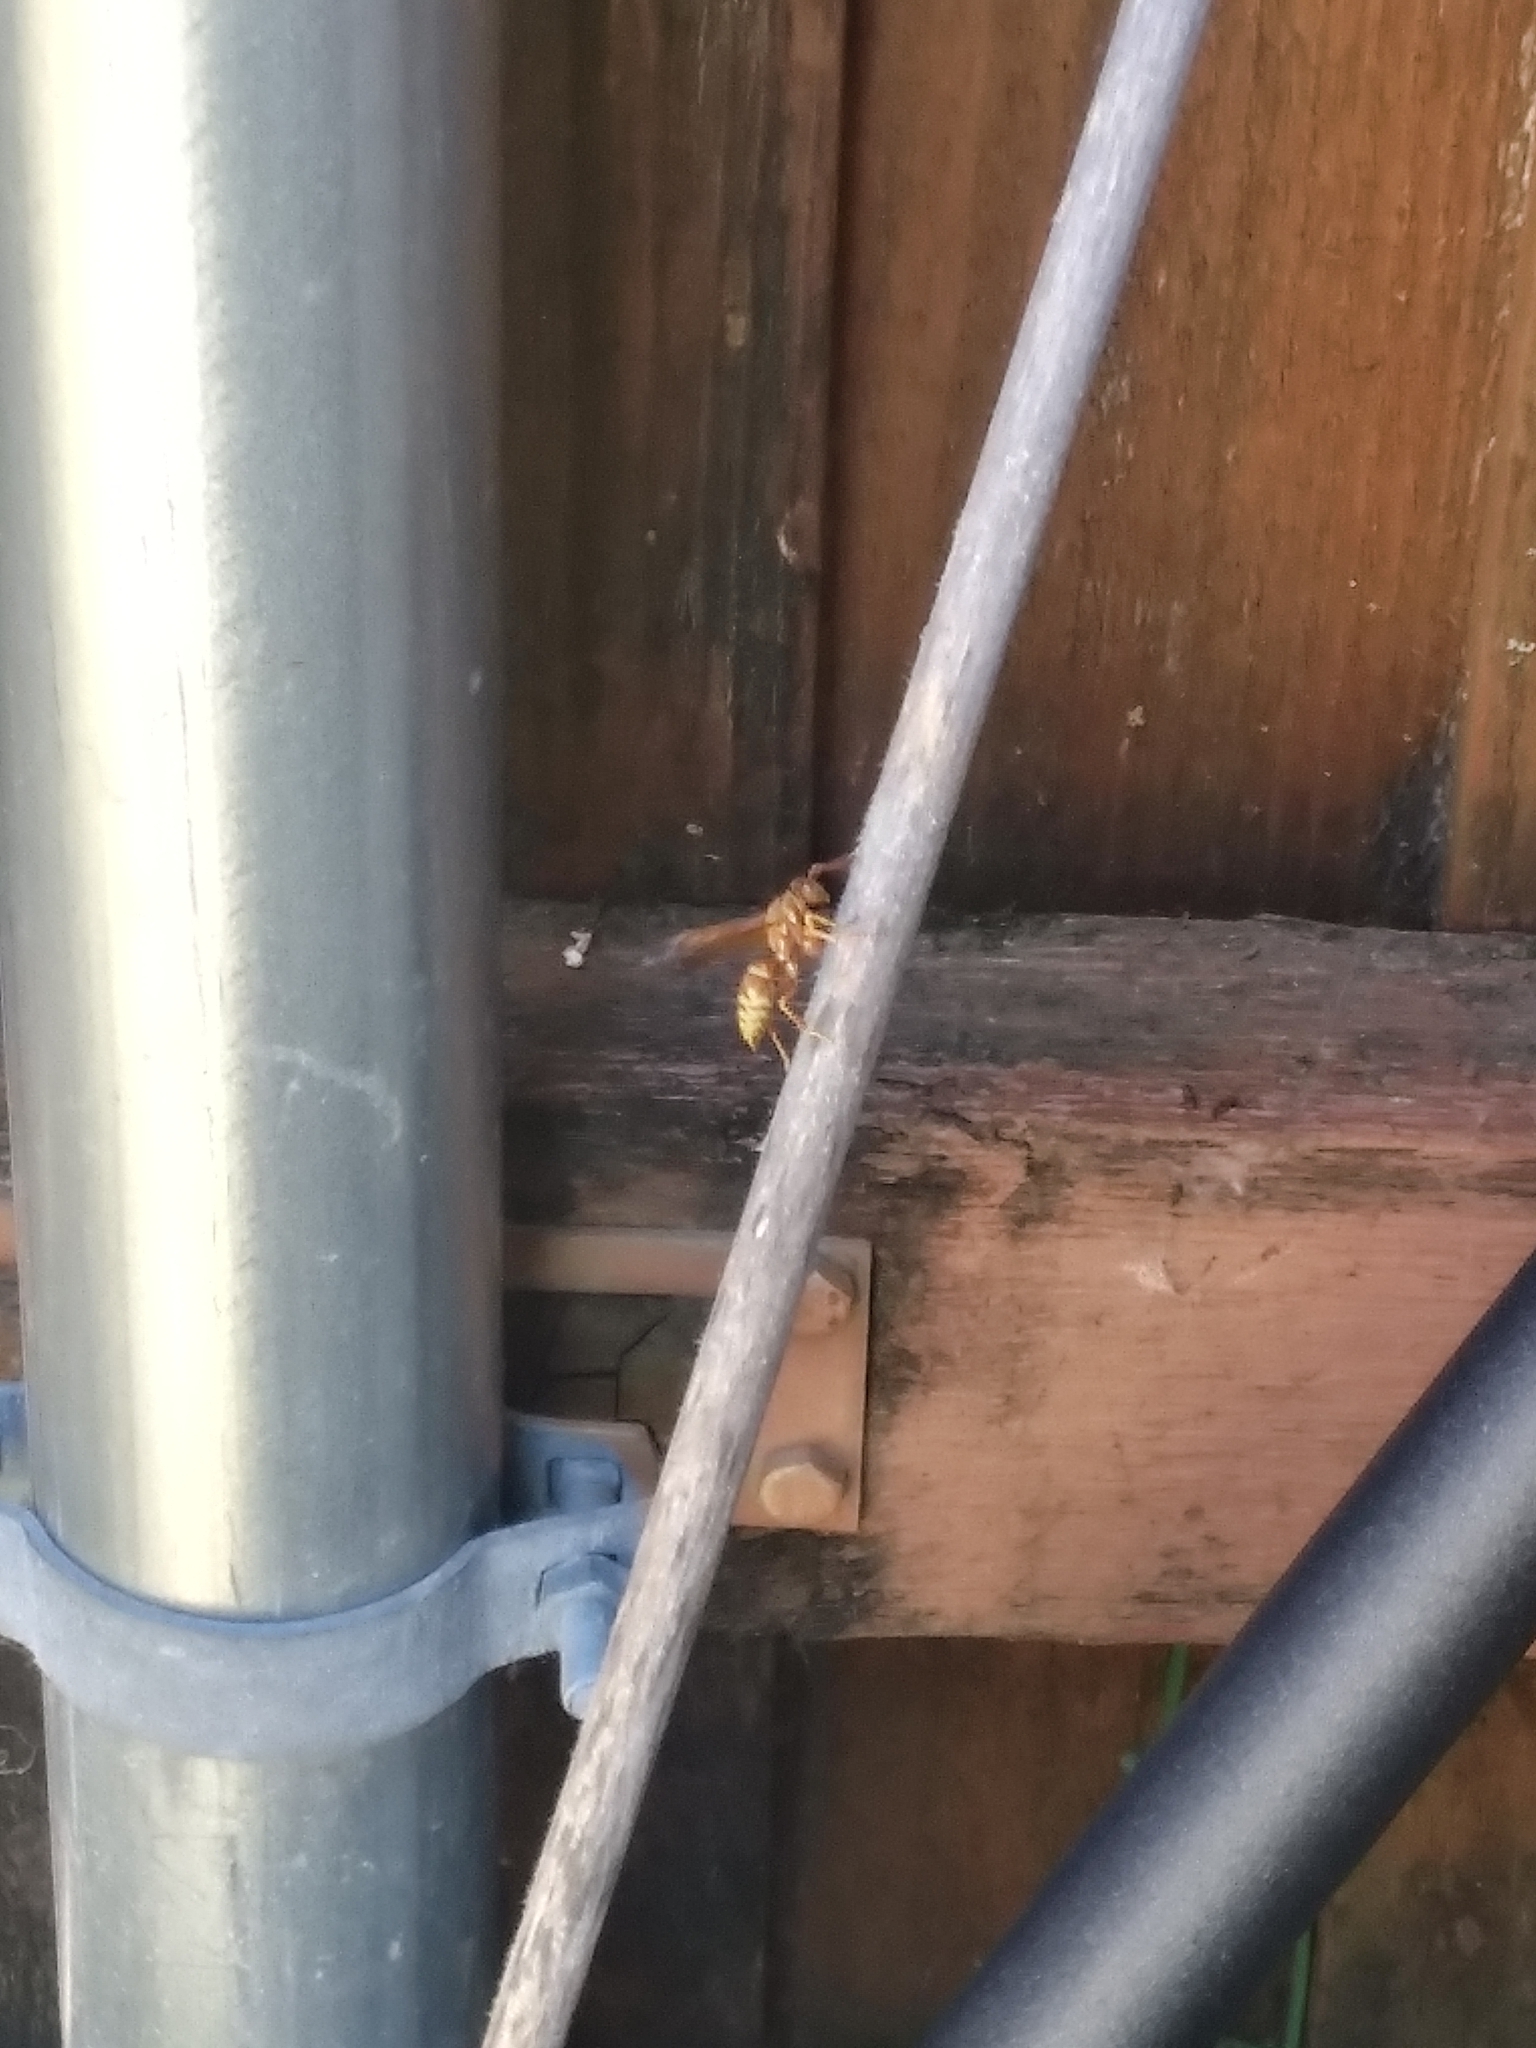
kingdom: Animalia
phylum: Arthropoda
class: Insecta
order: Hymenoptera
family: Eumenidae
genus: Polistes
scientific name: Polistes apachus
